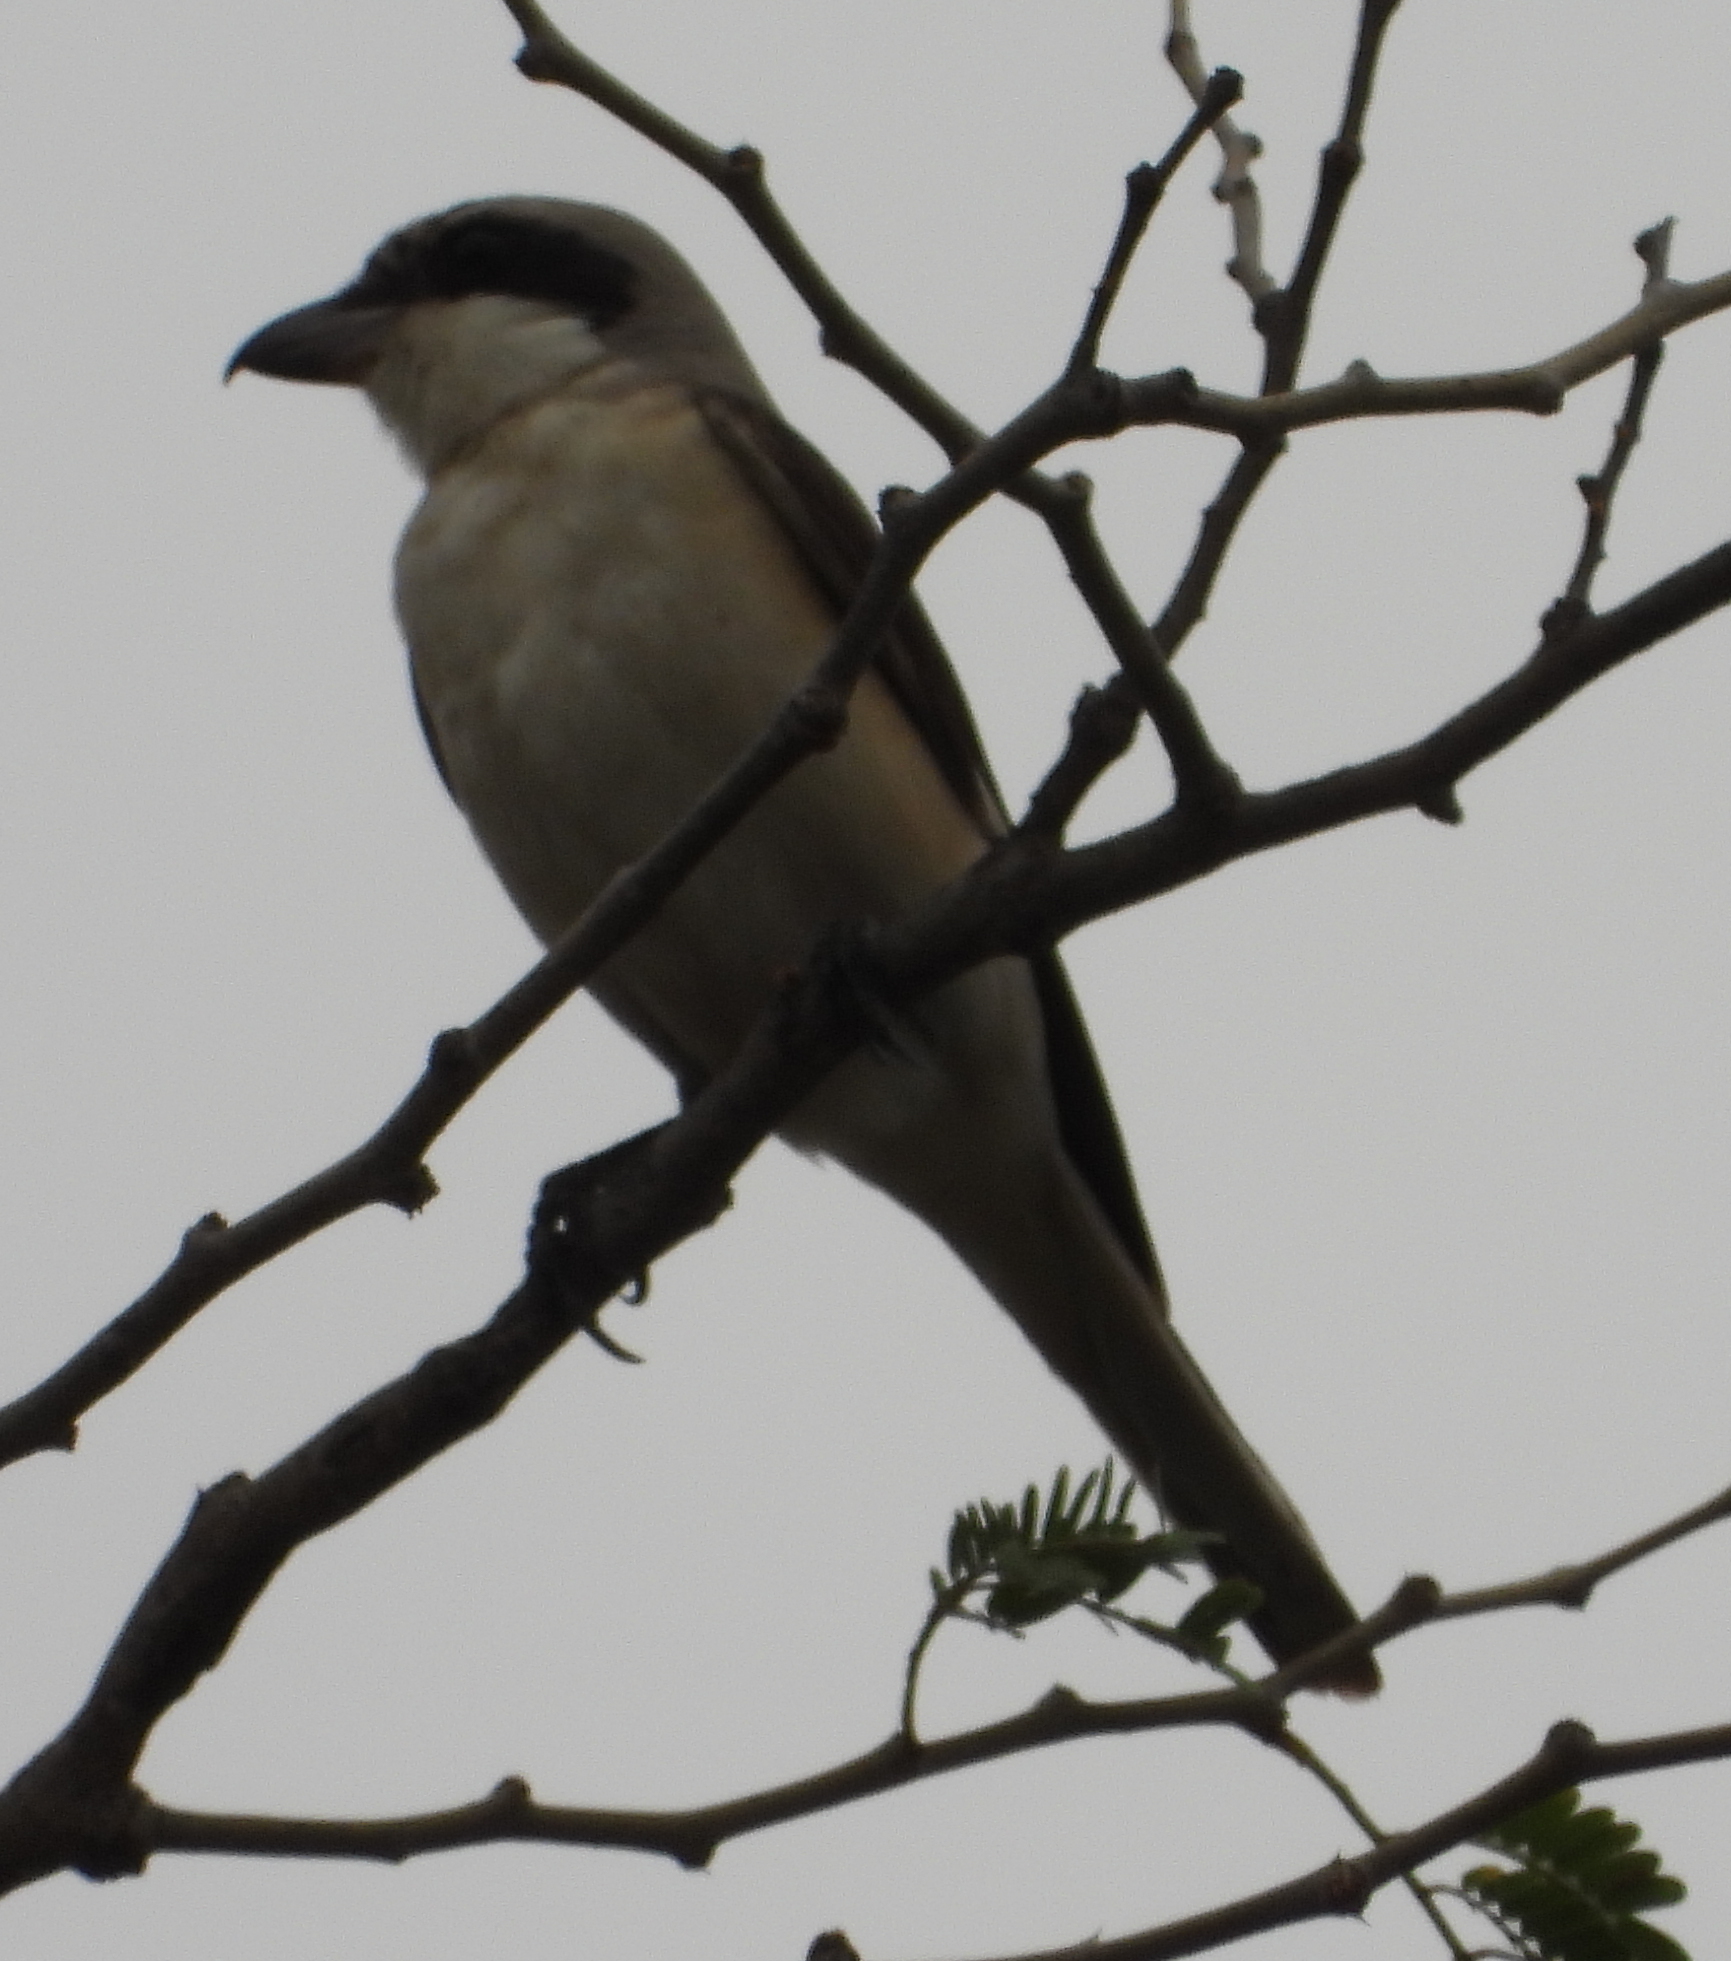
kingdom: Animalia
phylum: Chordata
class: Aves
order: Passeriformes
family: Laniidae
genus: Lanius
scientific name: Lanius minor
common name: Lesser grey shrike
